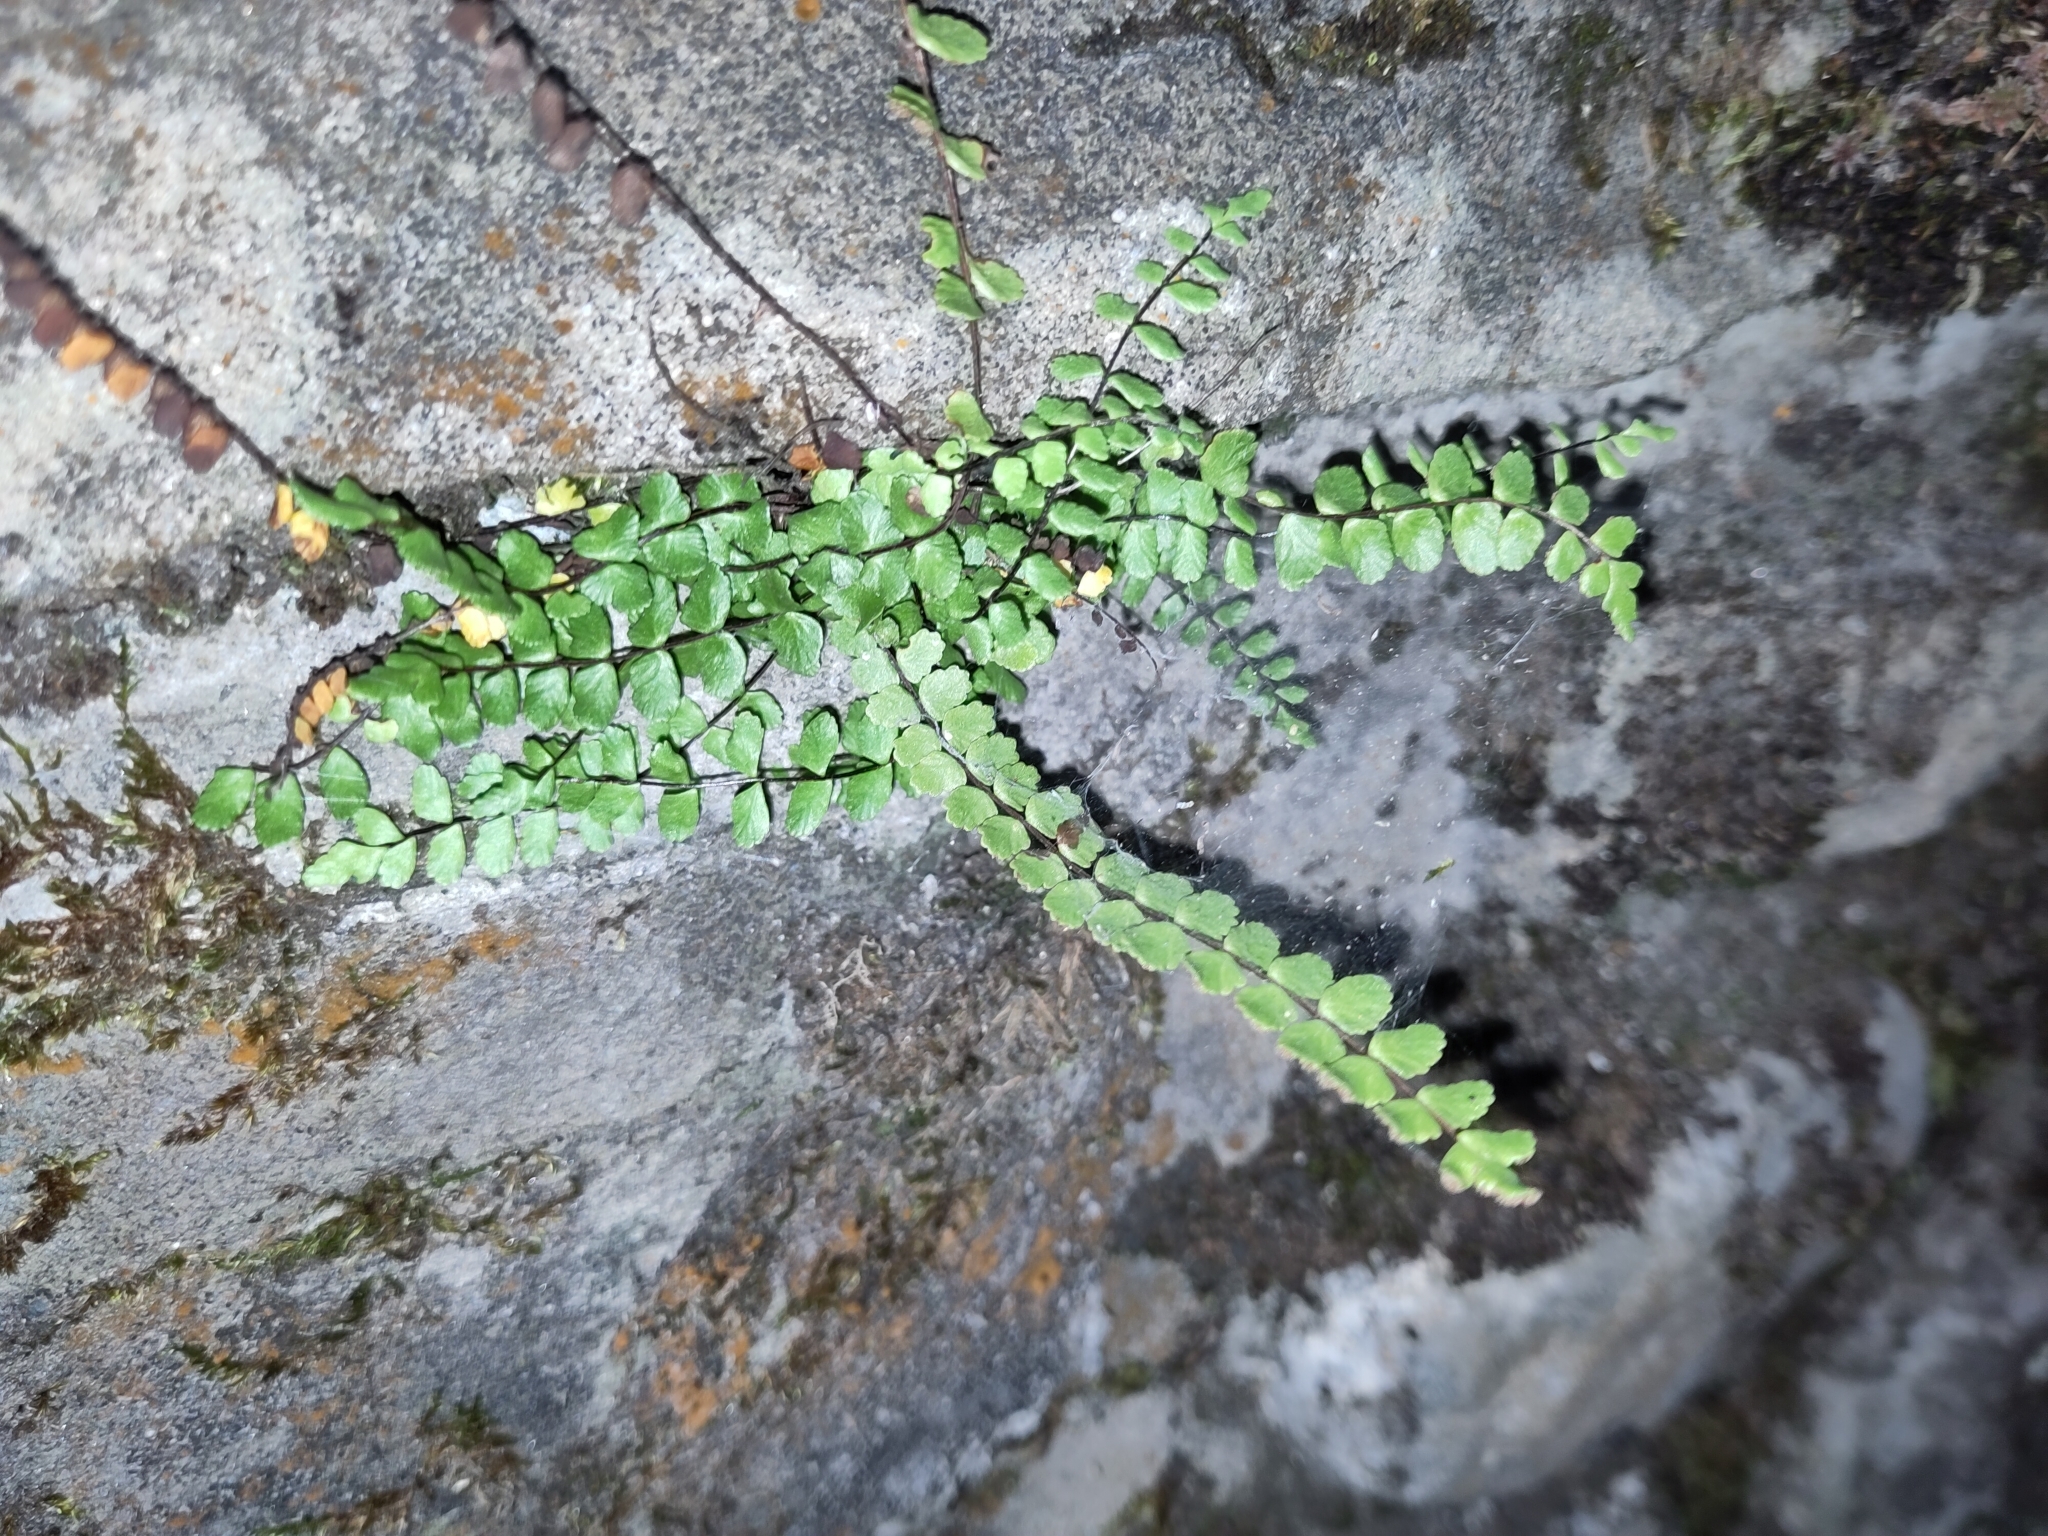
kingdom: Plantae
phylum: Tracheophyta
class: Polypodiopsida
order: Polypodiales
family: Aspleniaceae
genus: Asplenium
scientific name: Asplenium trichomanes
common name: Maidenhair spleenwort
